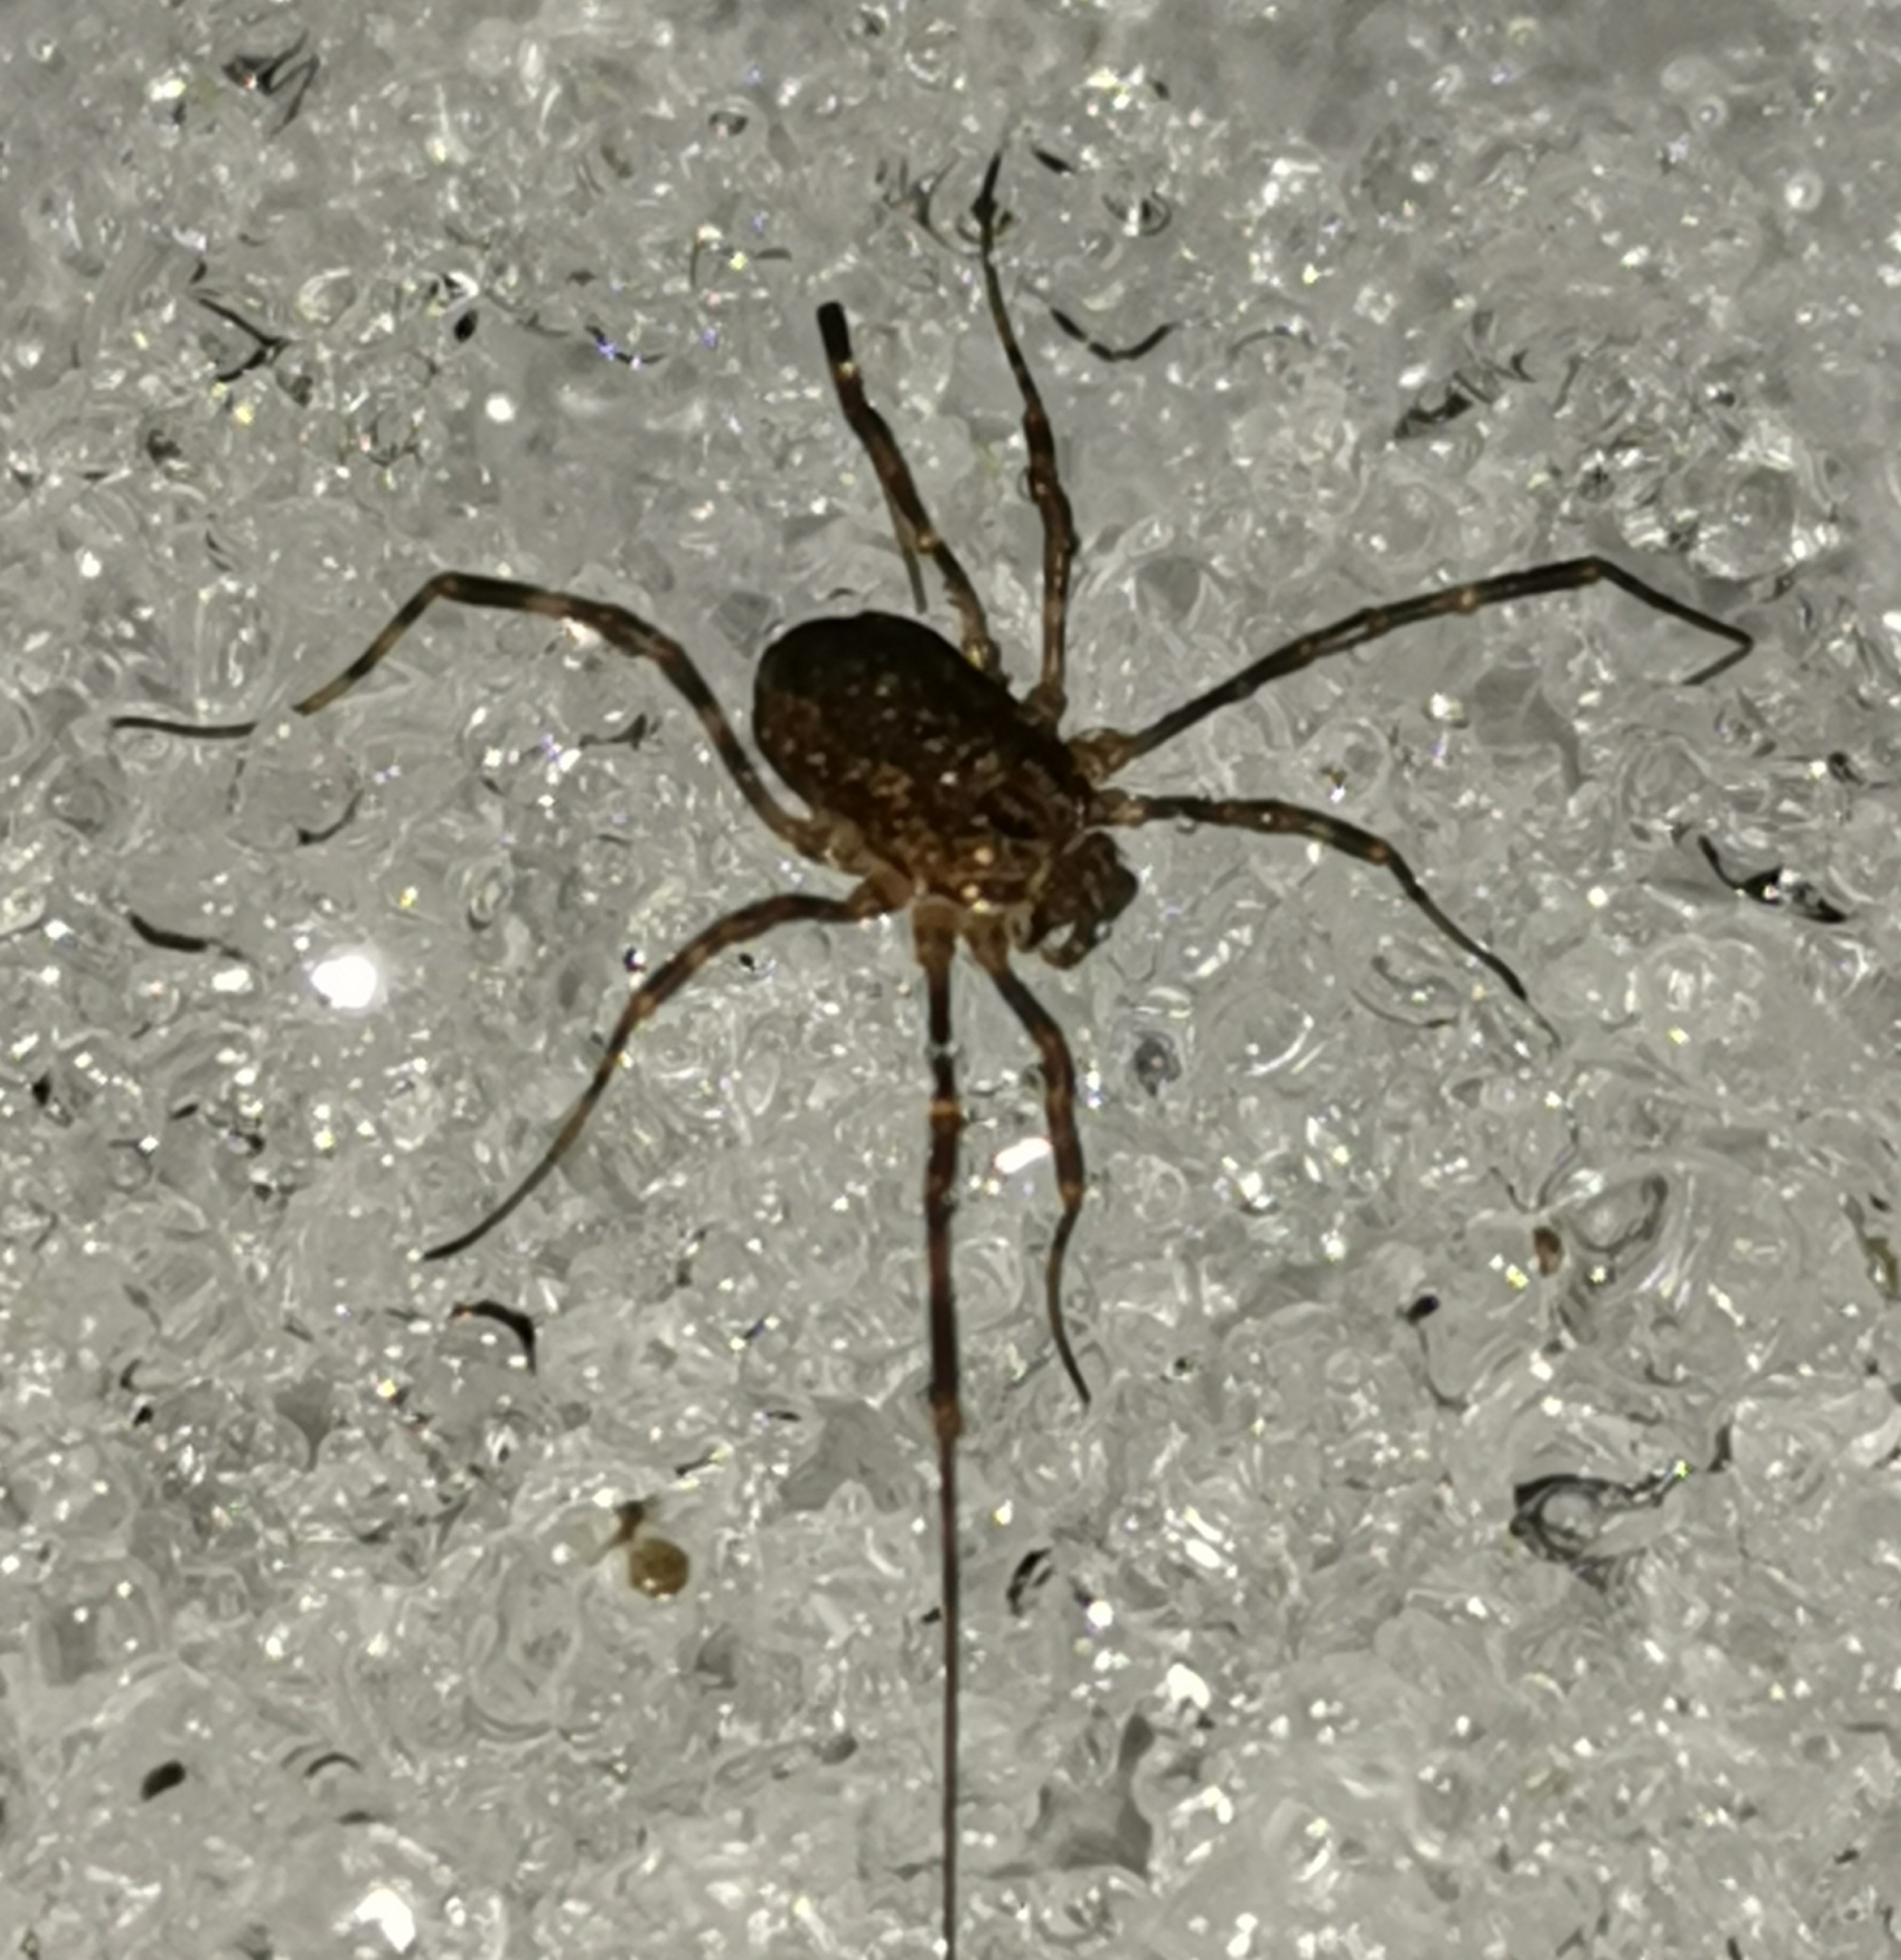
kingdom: Animalia
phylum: Arthropoda
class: Arachnida
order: Opiliones
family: Phalangiidae
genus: Rilaena
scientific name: Rilaena triangularis
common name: Spring harvestman
